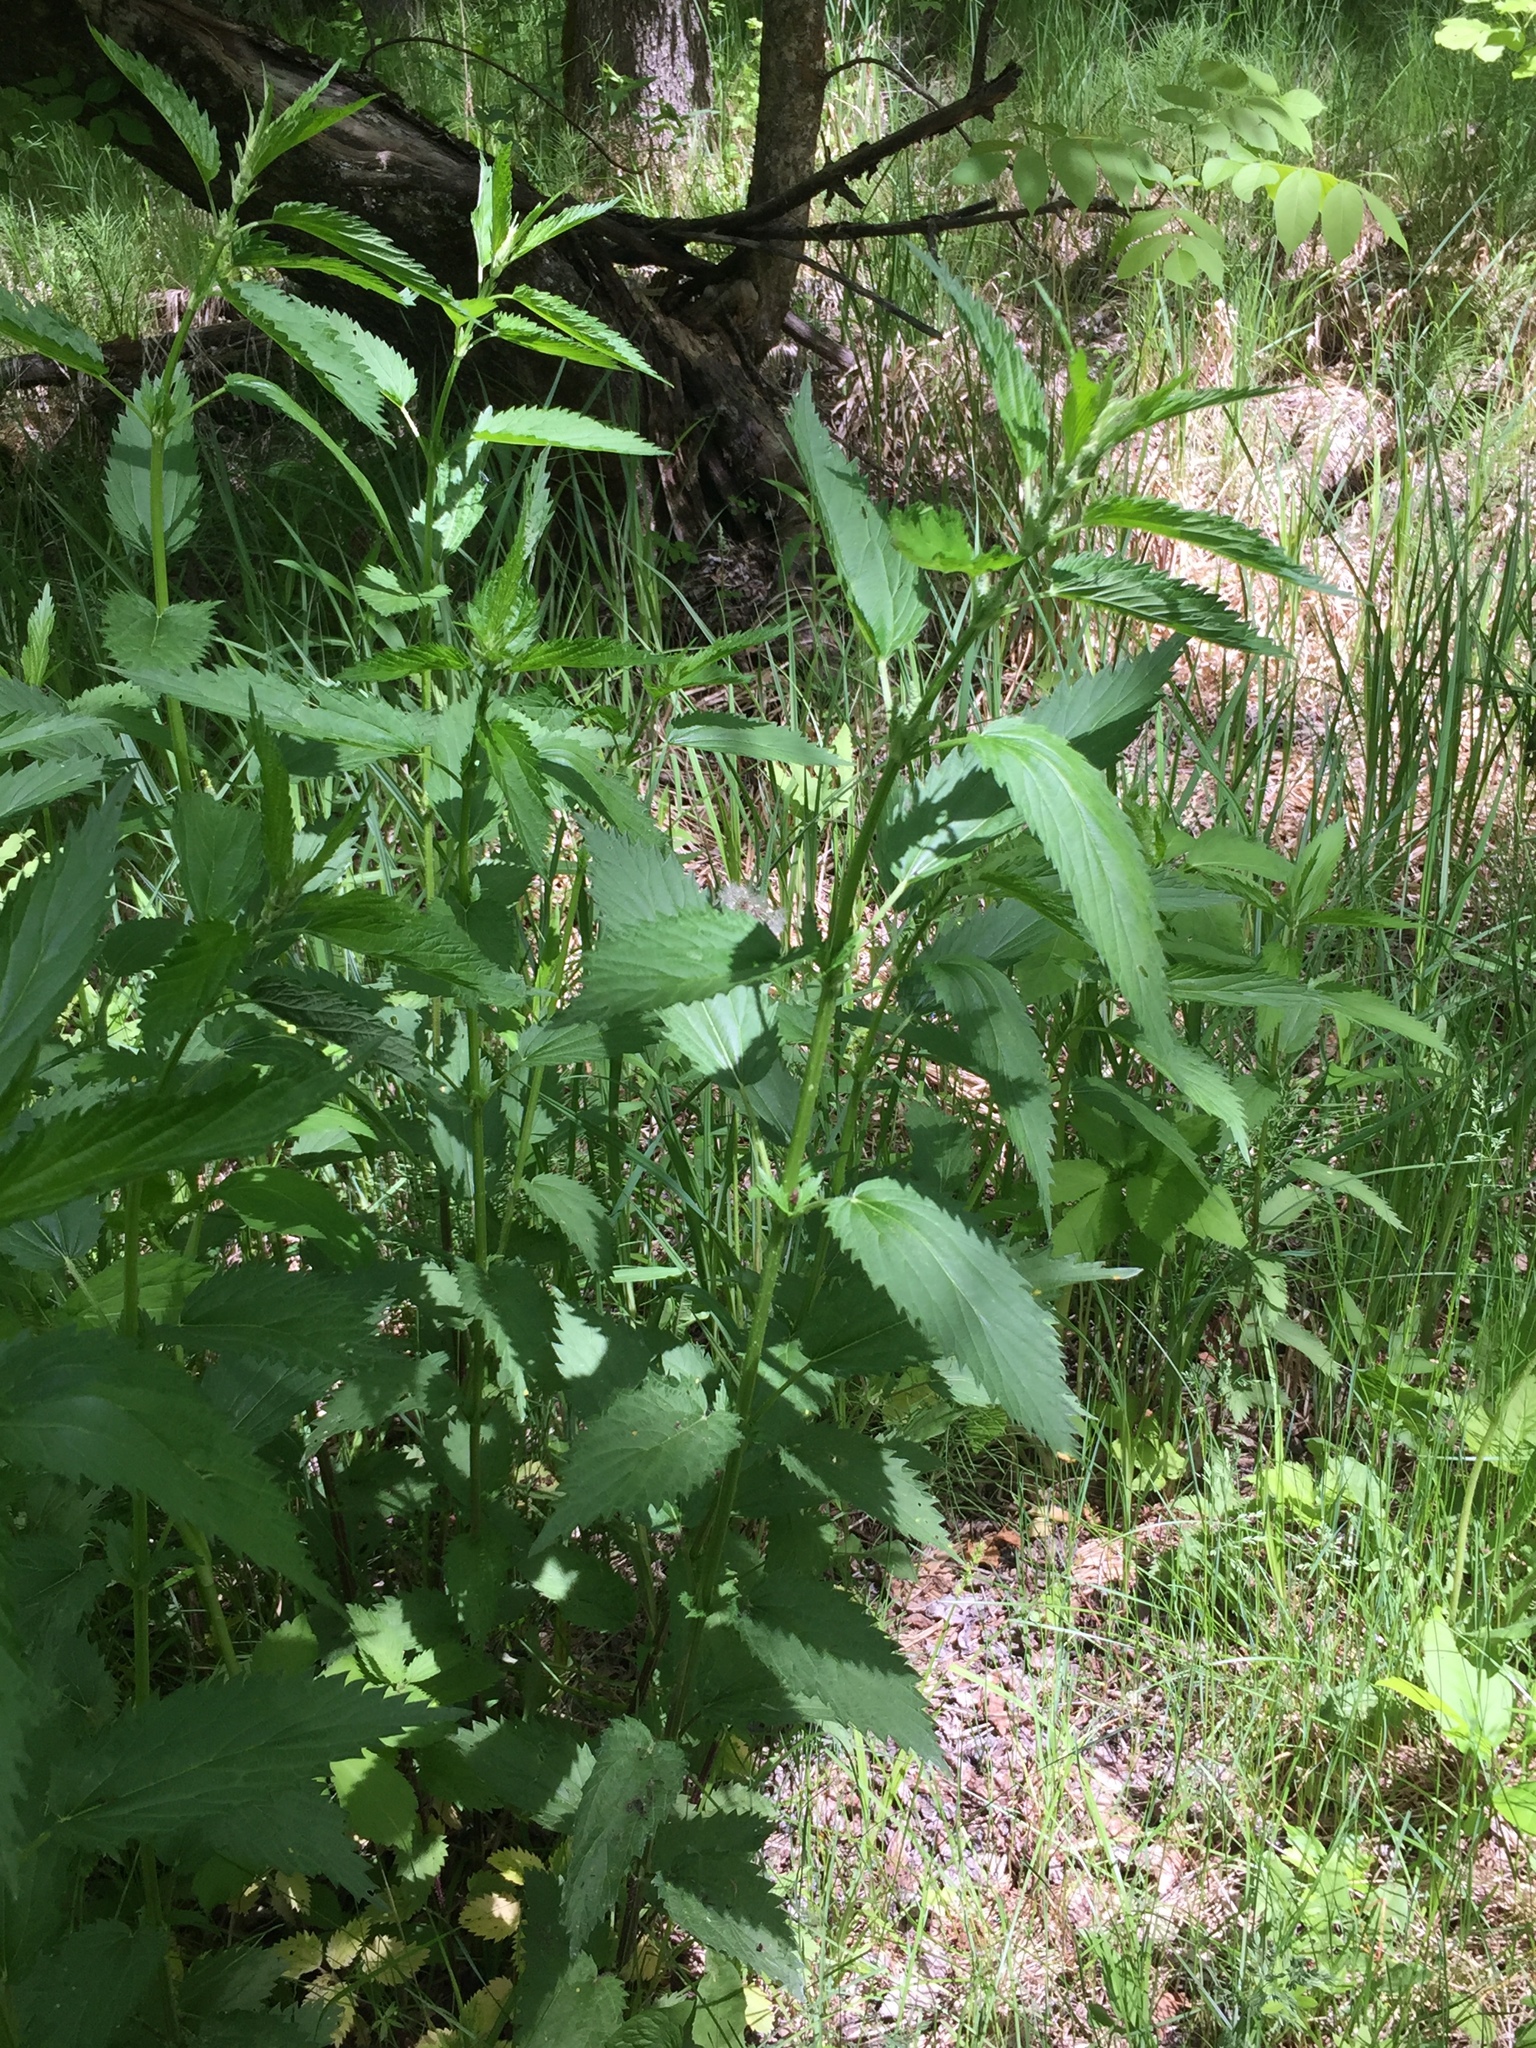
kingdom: Plantae
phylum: Tracheophyta
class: Magnoliopsida
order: Rosales
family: Urticaceae
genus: Urtica
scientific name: Urtica gracilis
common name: Slender stinging nettle
